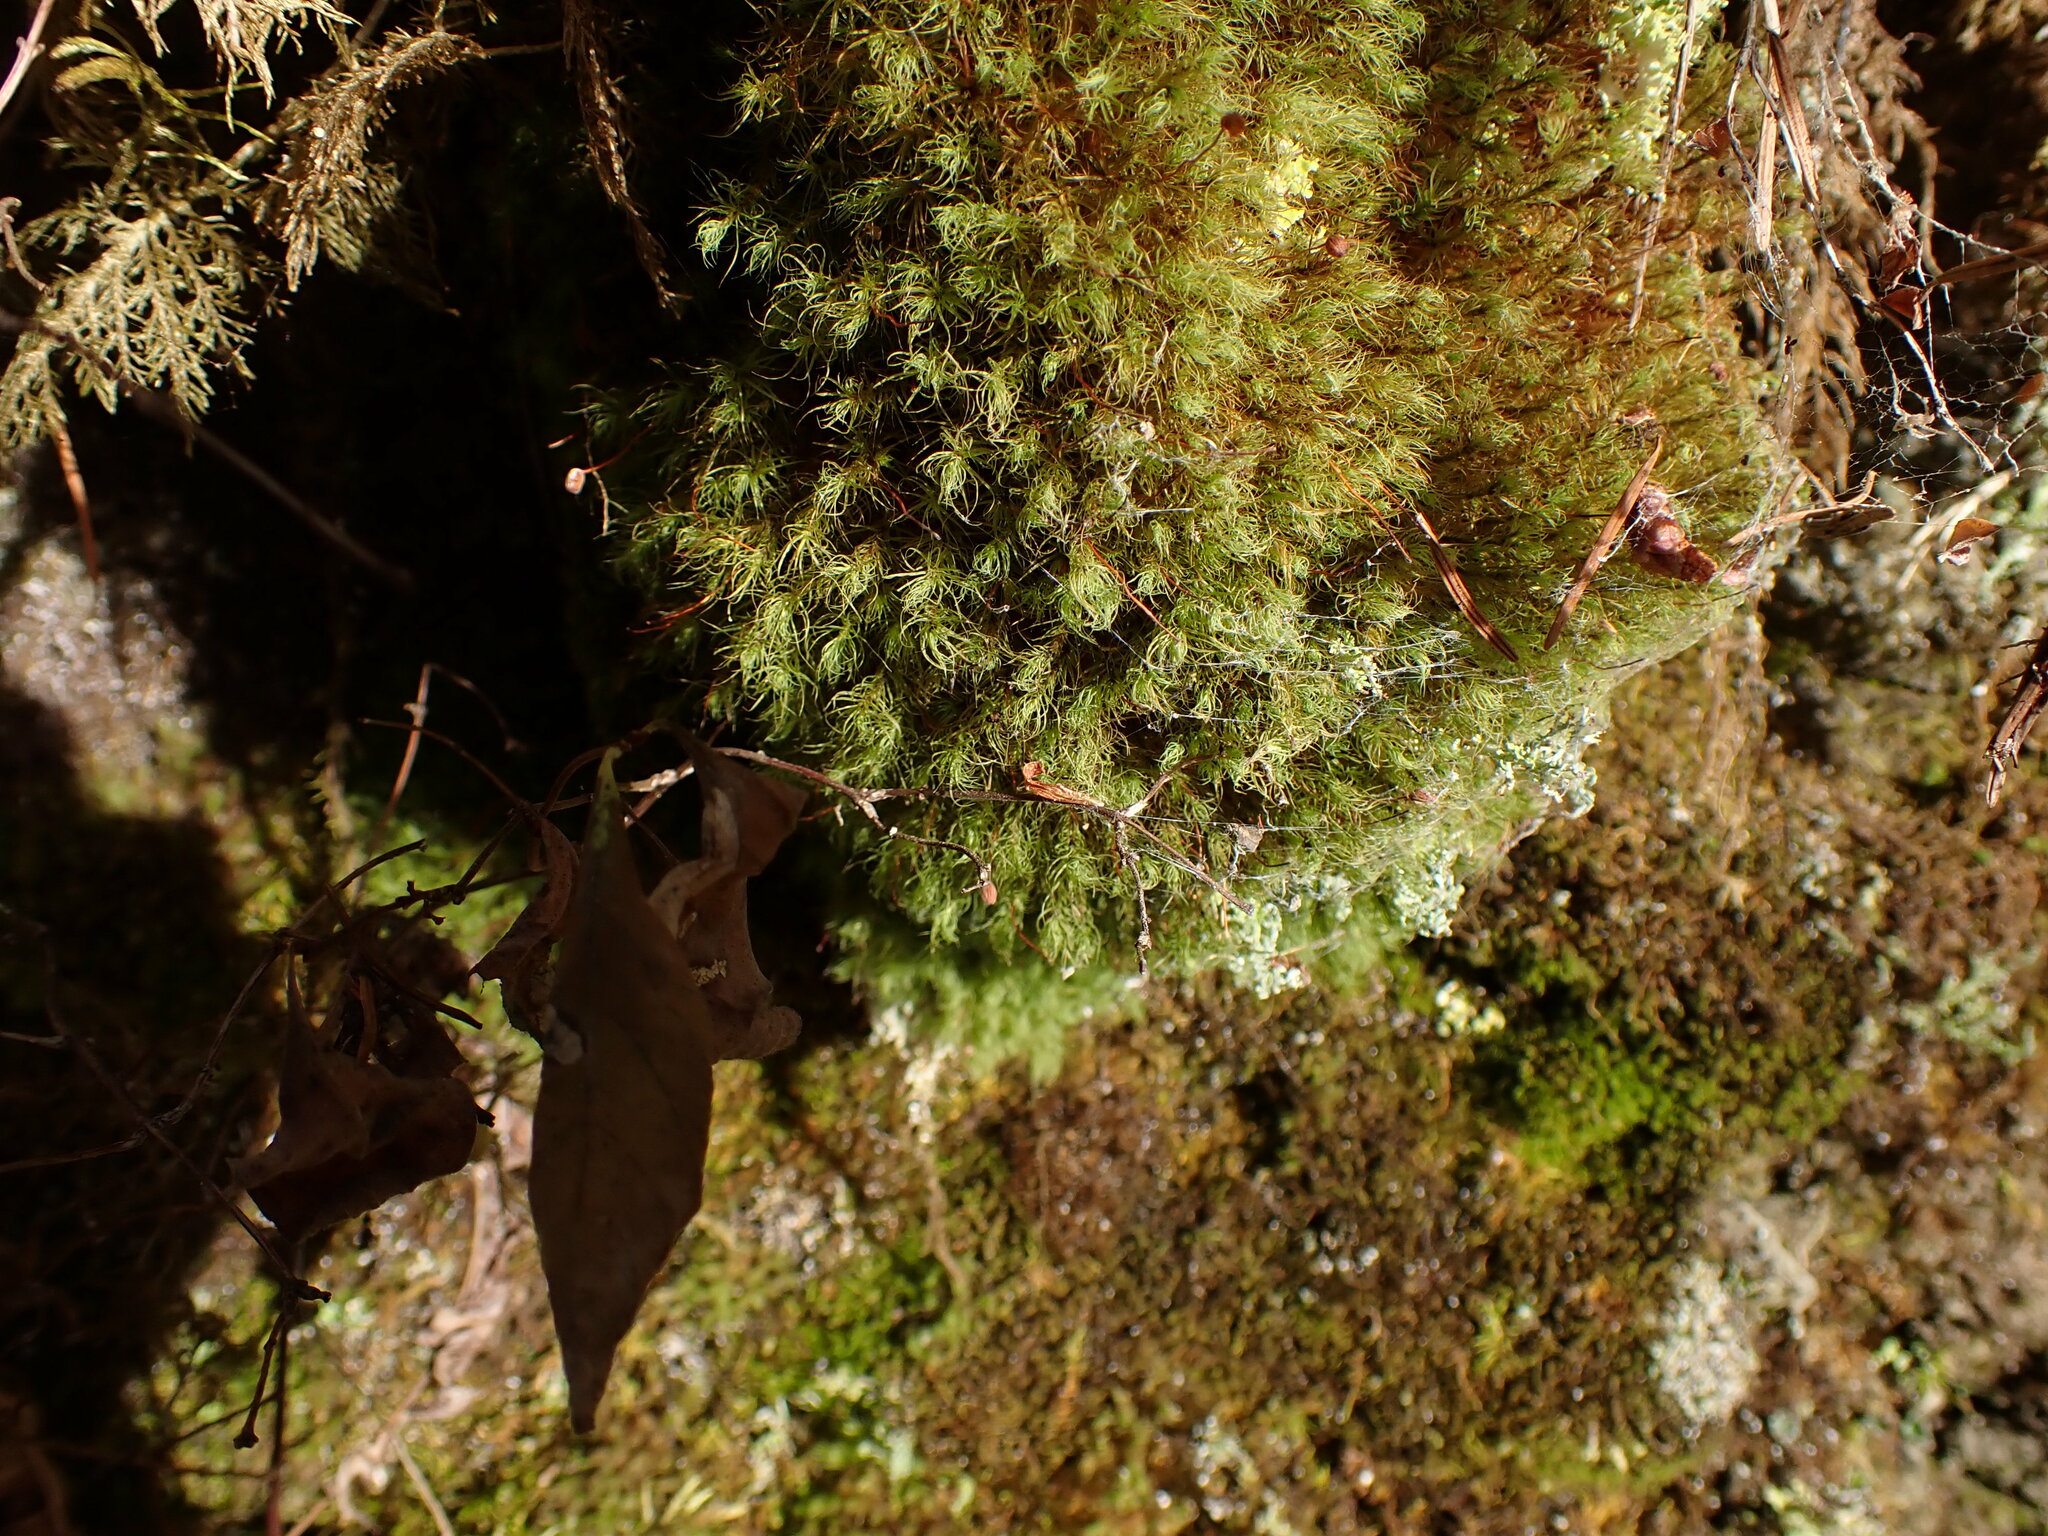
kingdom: Plantae
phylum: Bryophyta
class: Bryopsida
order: Bartramiales
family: Bartramiaceae
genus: Bartramia
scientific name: Bartramia ithyphylla
